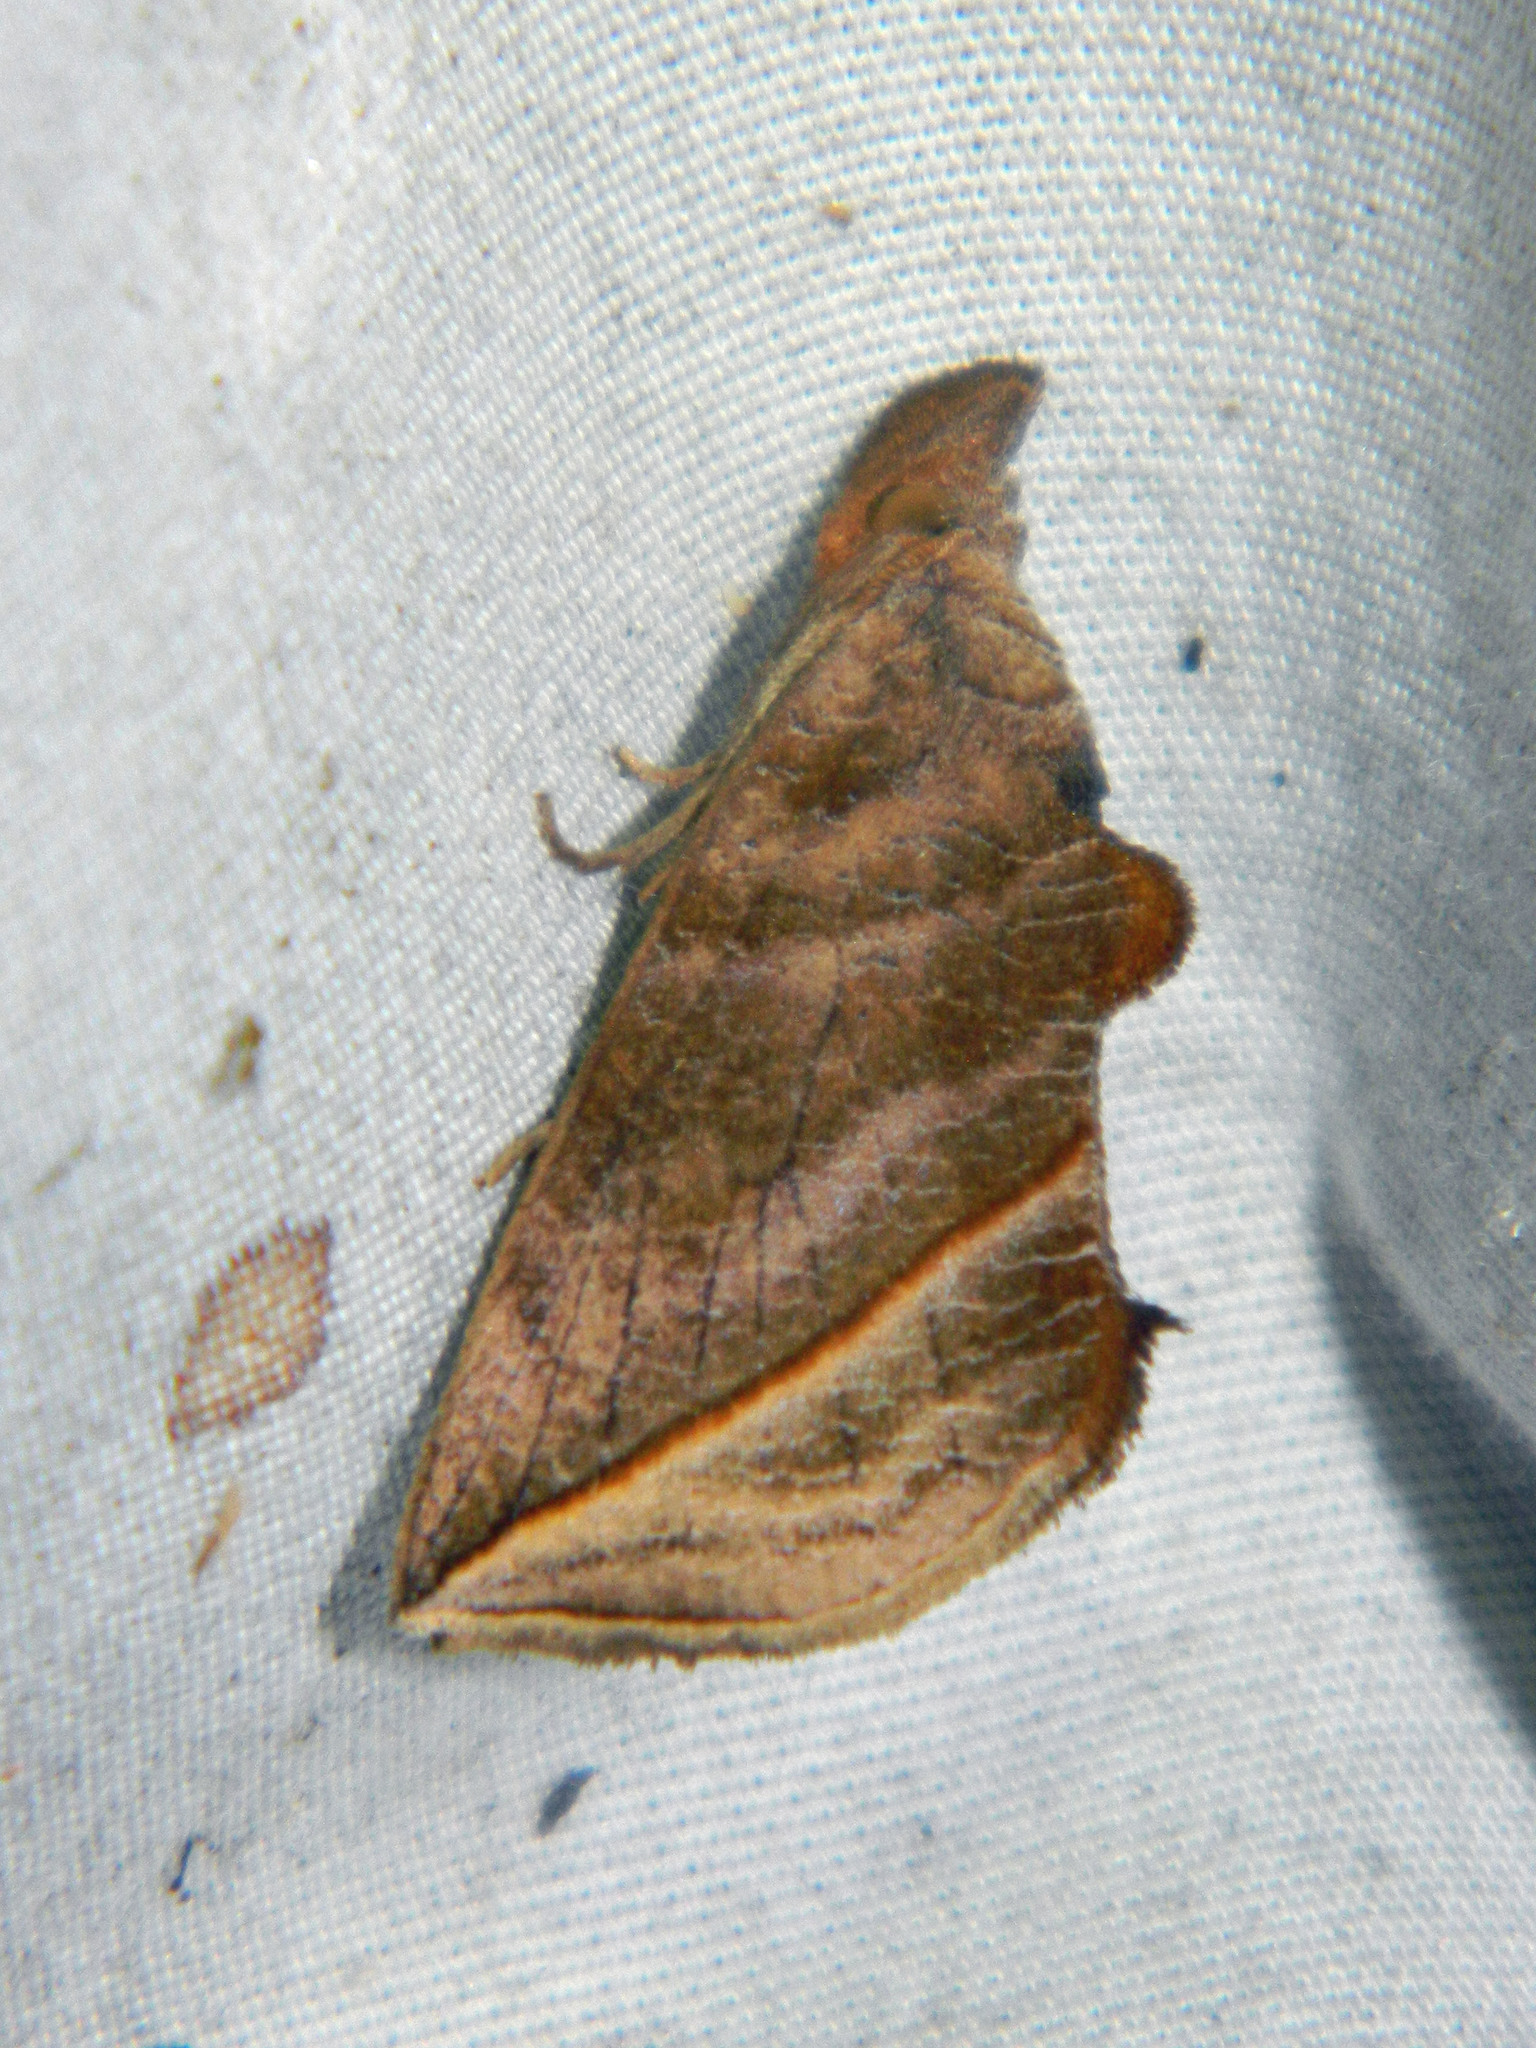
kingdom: Animalia
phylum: Arthropoda
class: Insecta
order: Lepidoptera
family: Erebidae
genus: Calyptra
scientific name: Calyptra canadensis
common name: Canadian owlet
